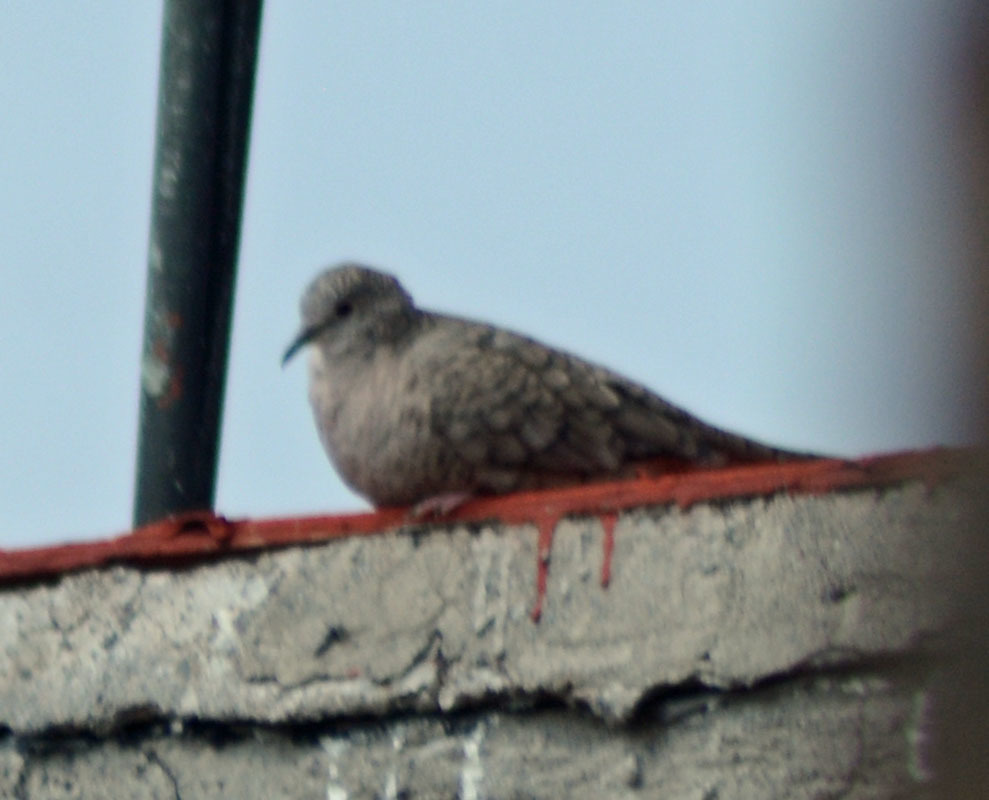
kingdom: Animalia
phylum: Chordata
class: Aves
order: Columbiformes
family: Columbidae
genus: Columbina
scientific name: Columbina inca
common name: Inca dove
